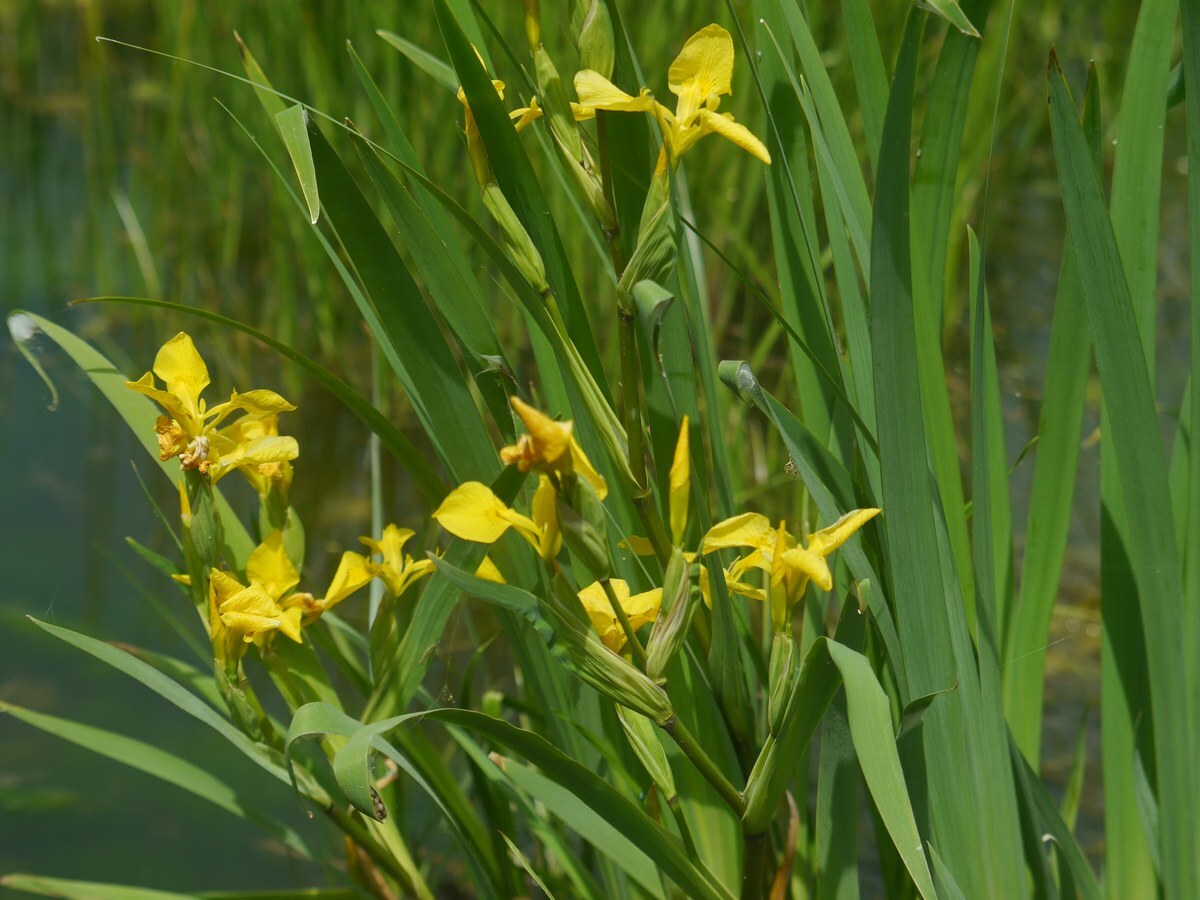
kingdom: Plantae
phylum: Tracheophyta
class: Liliopsida
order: Asparagales
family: Iridaceae
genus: Iris
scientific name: Iris pseudacorus
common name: Yellow flag
